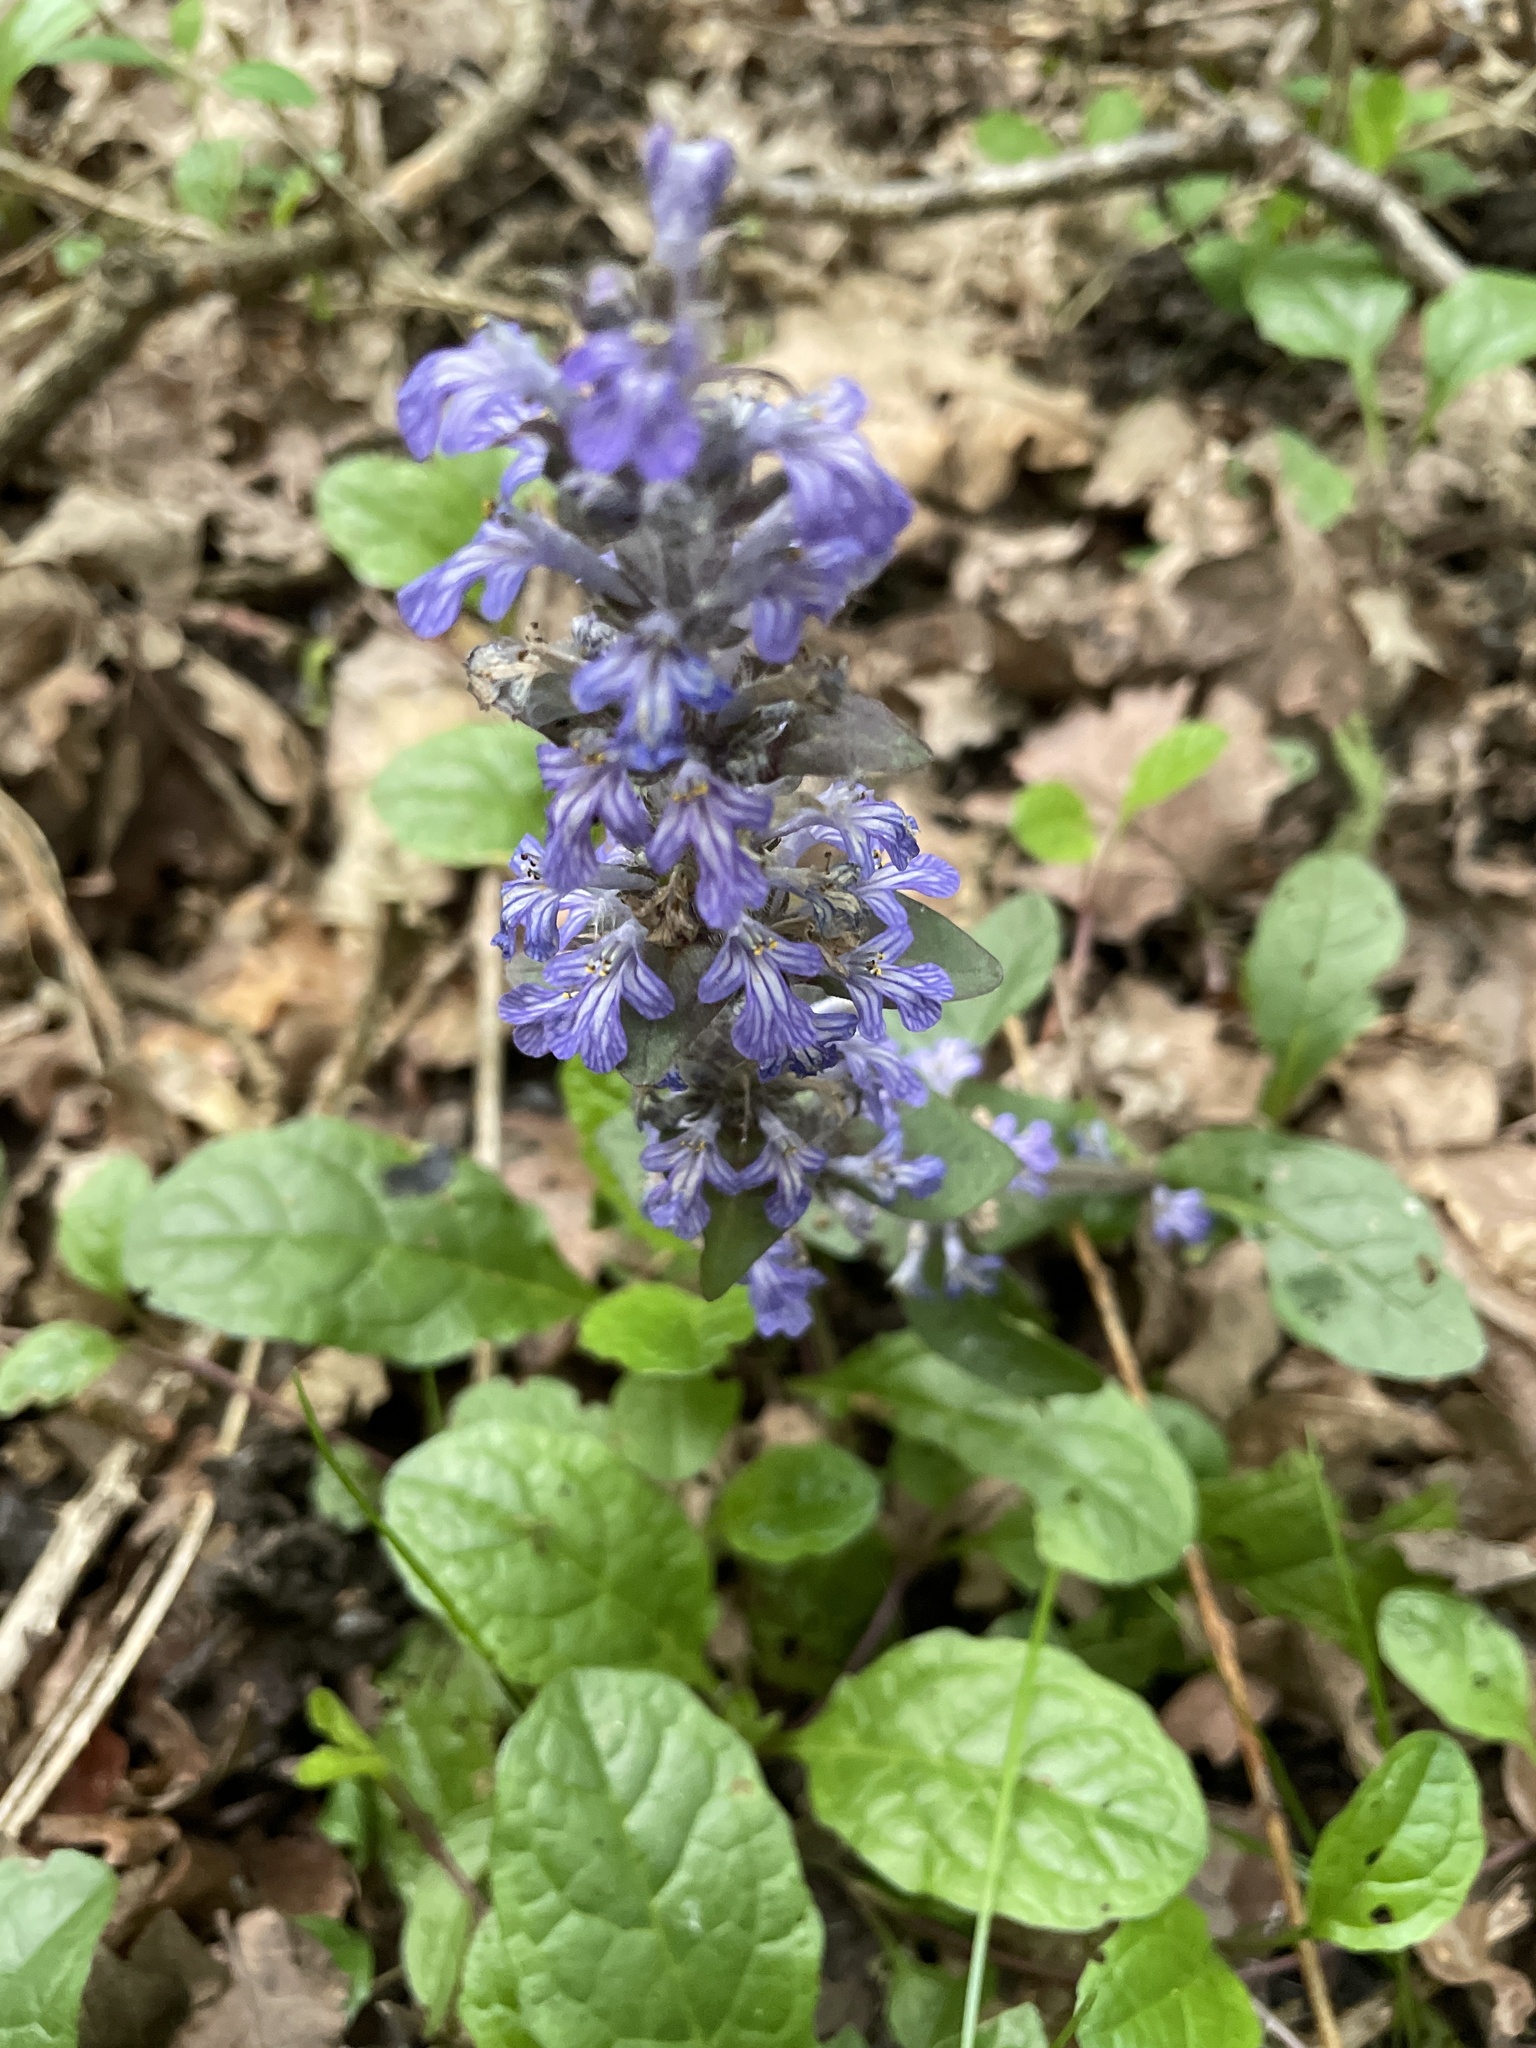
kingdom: Plantae
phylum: Tracheophyta
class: Magnoliopsida
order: Lamiales
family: Lamiaceae
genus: Ajuga
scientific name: Ajuga reptans
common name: Bugle
